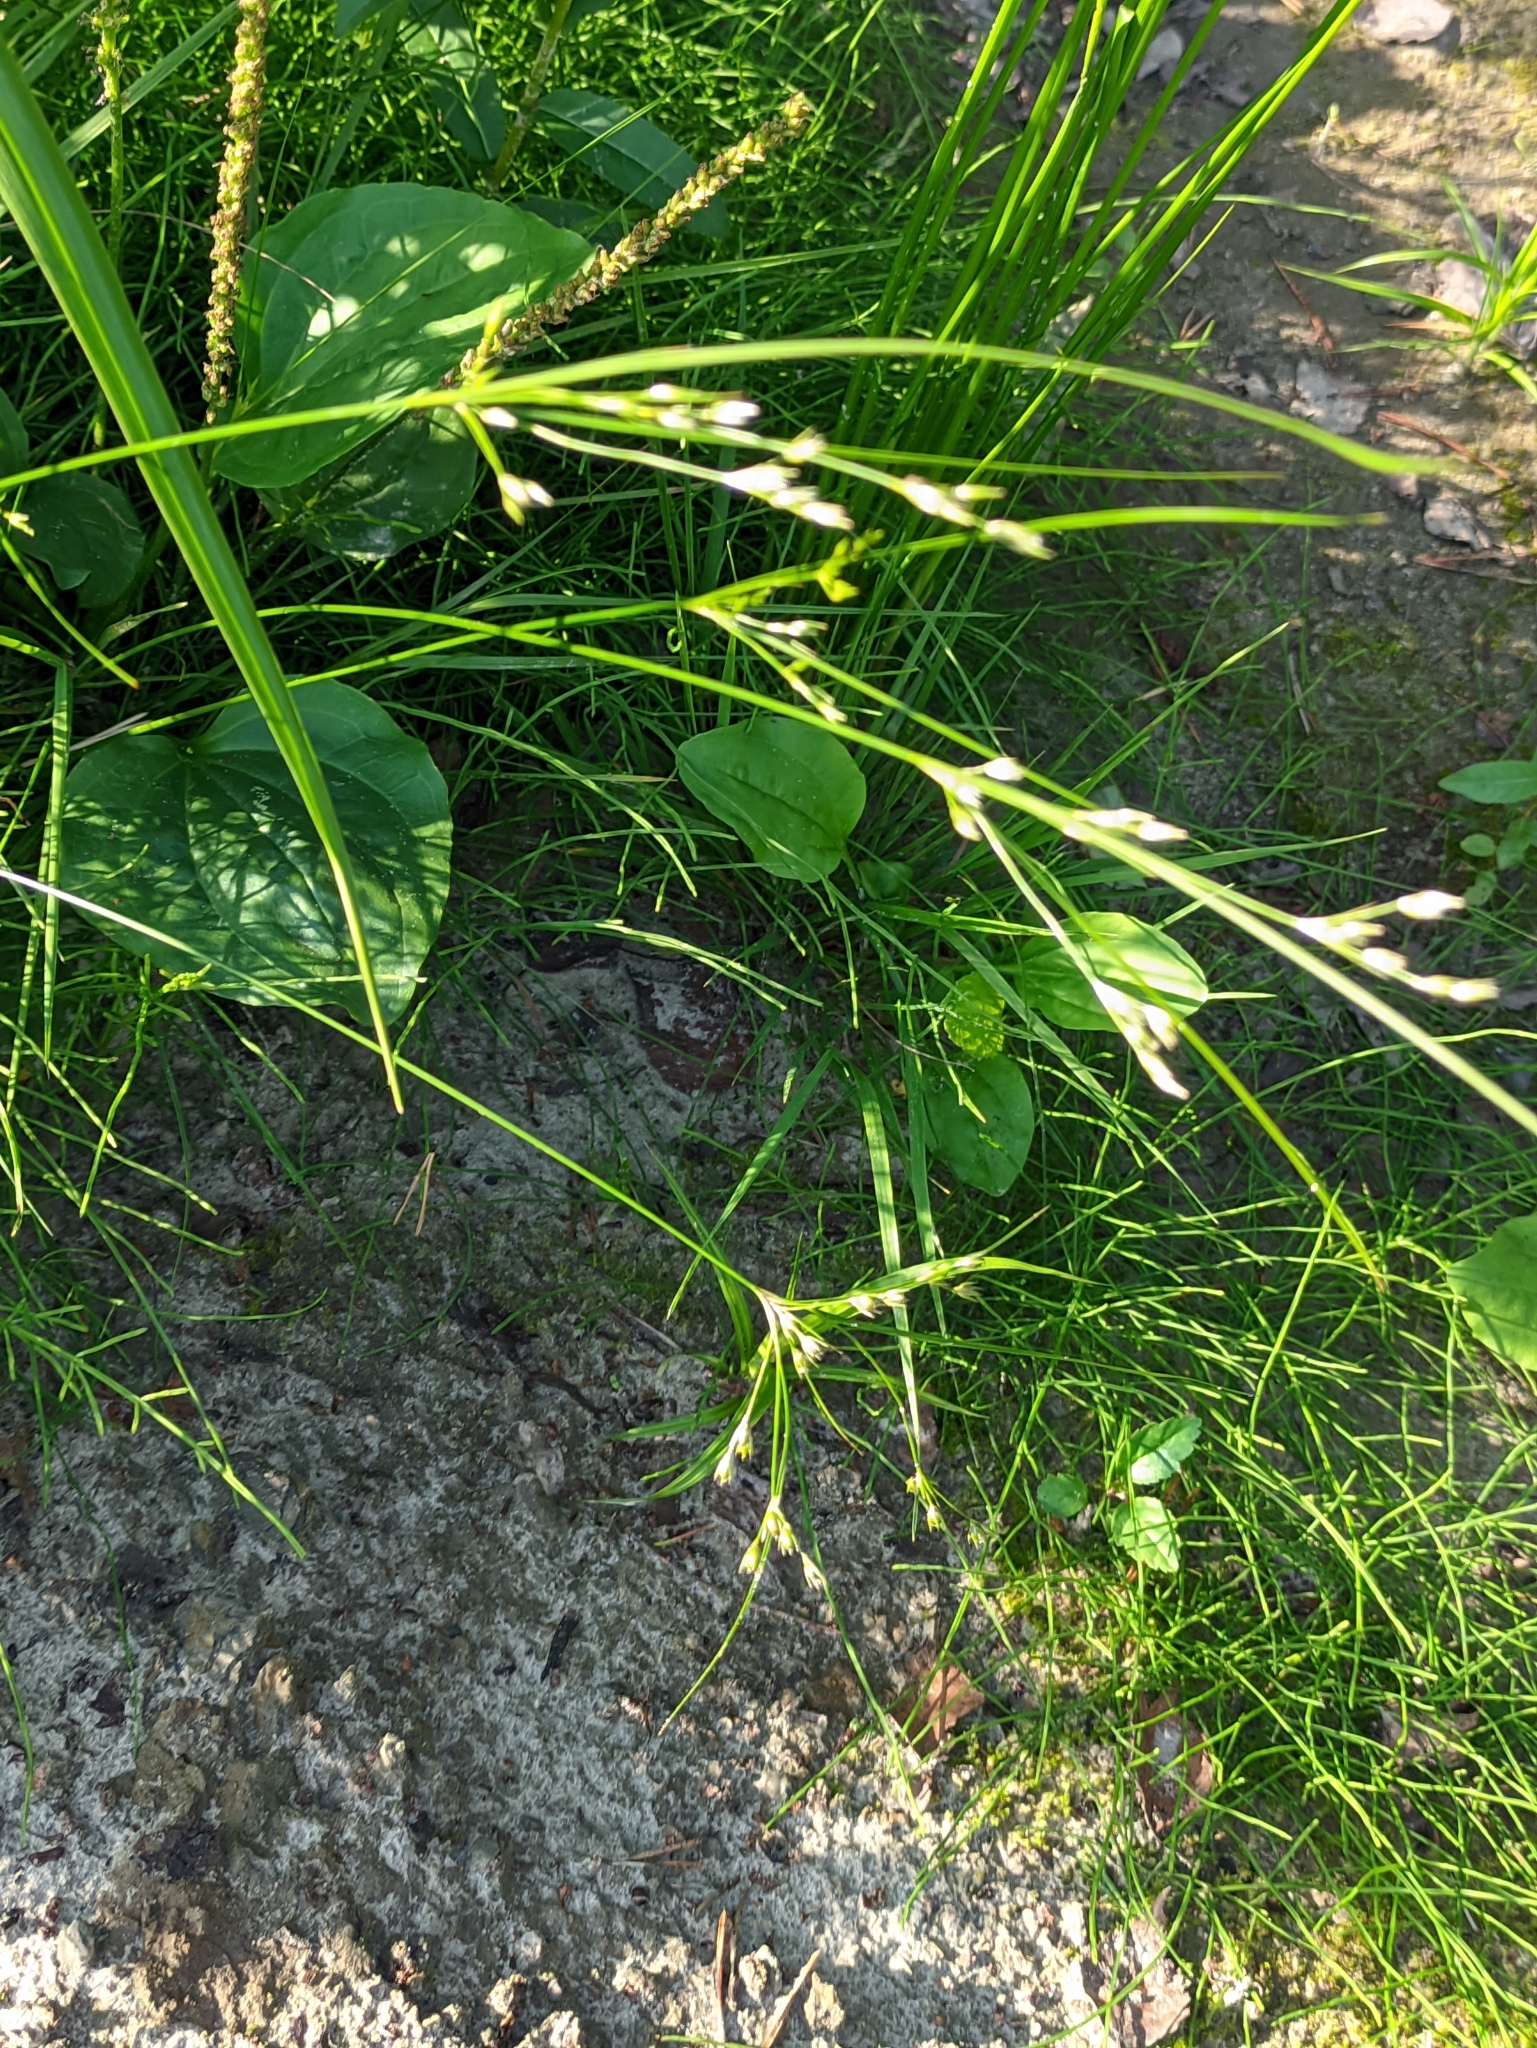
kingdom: Plantae
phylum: Tracheophyta
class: Liliopsida
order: Poales
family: Juncaceae
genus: Juncus
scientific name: Juncus tenuis
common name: Slender rush
